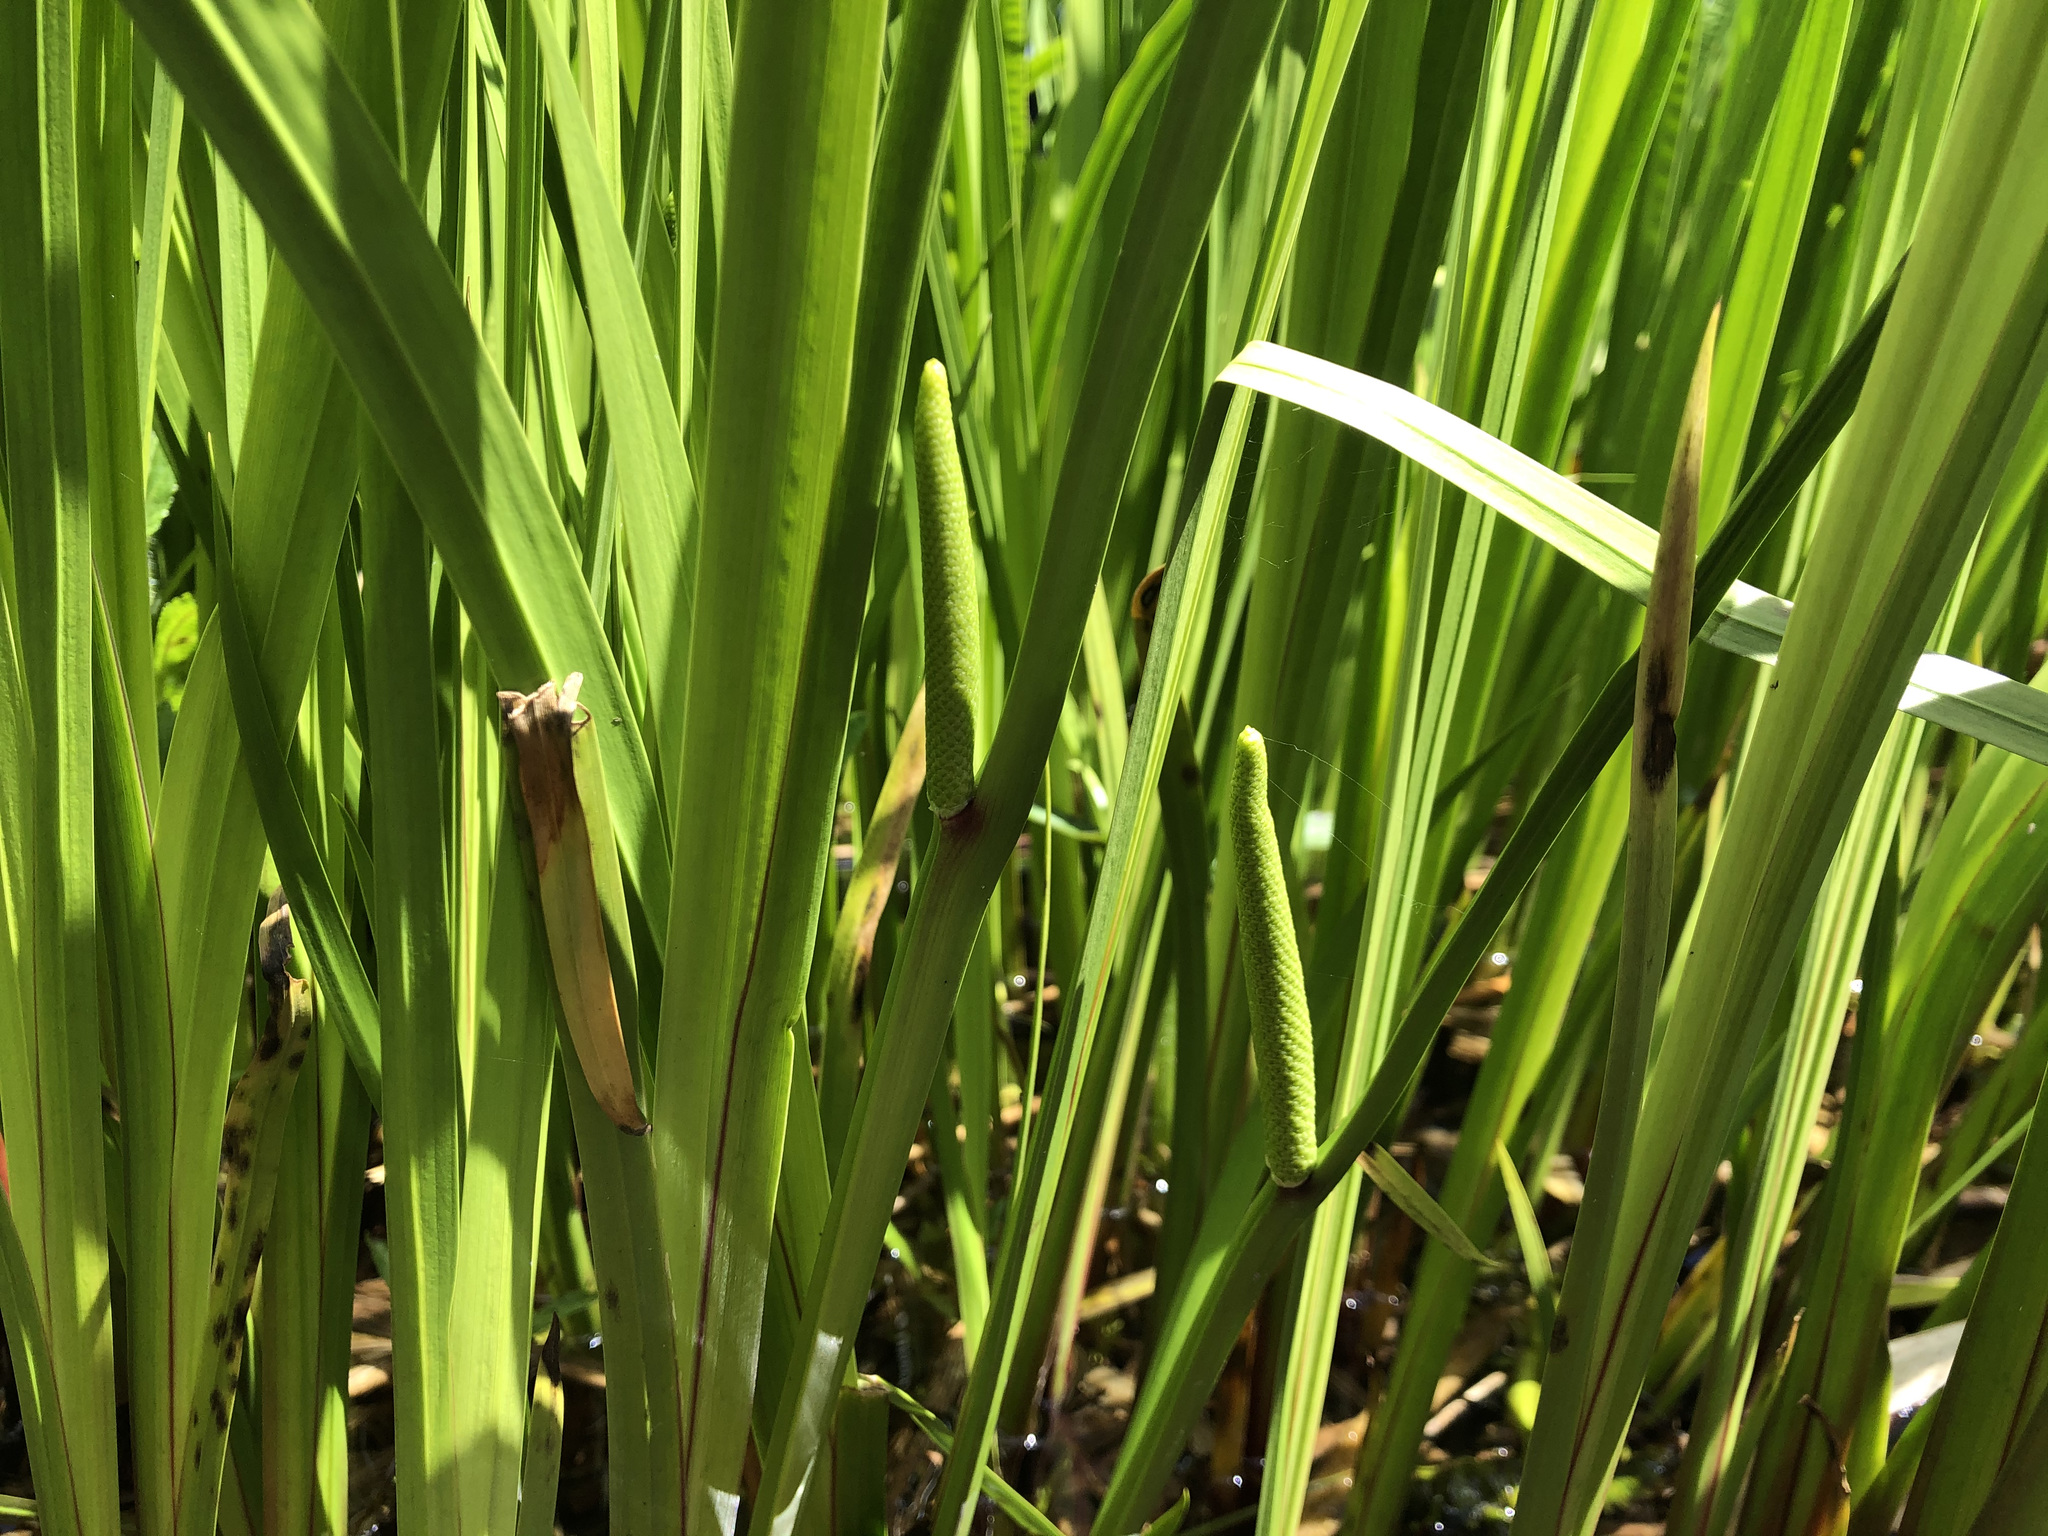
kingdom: Plantae
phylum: Tracheophyta
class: Liliopsida
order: Acorales
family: Acoraceae
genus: Acorus
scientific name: Acorus calamus
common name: Sweet-flag
